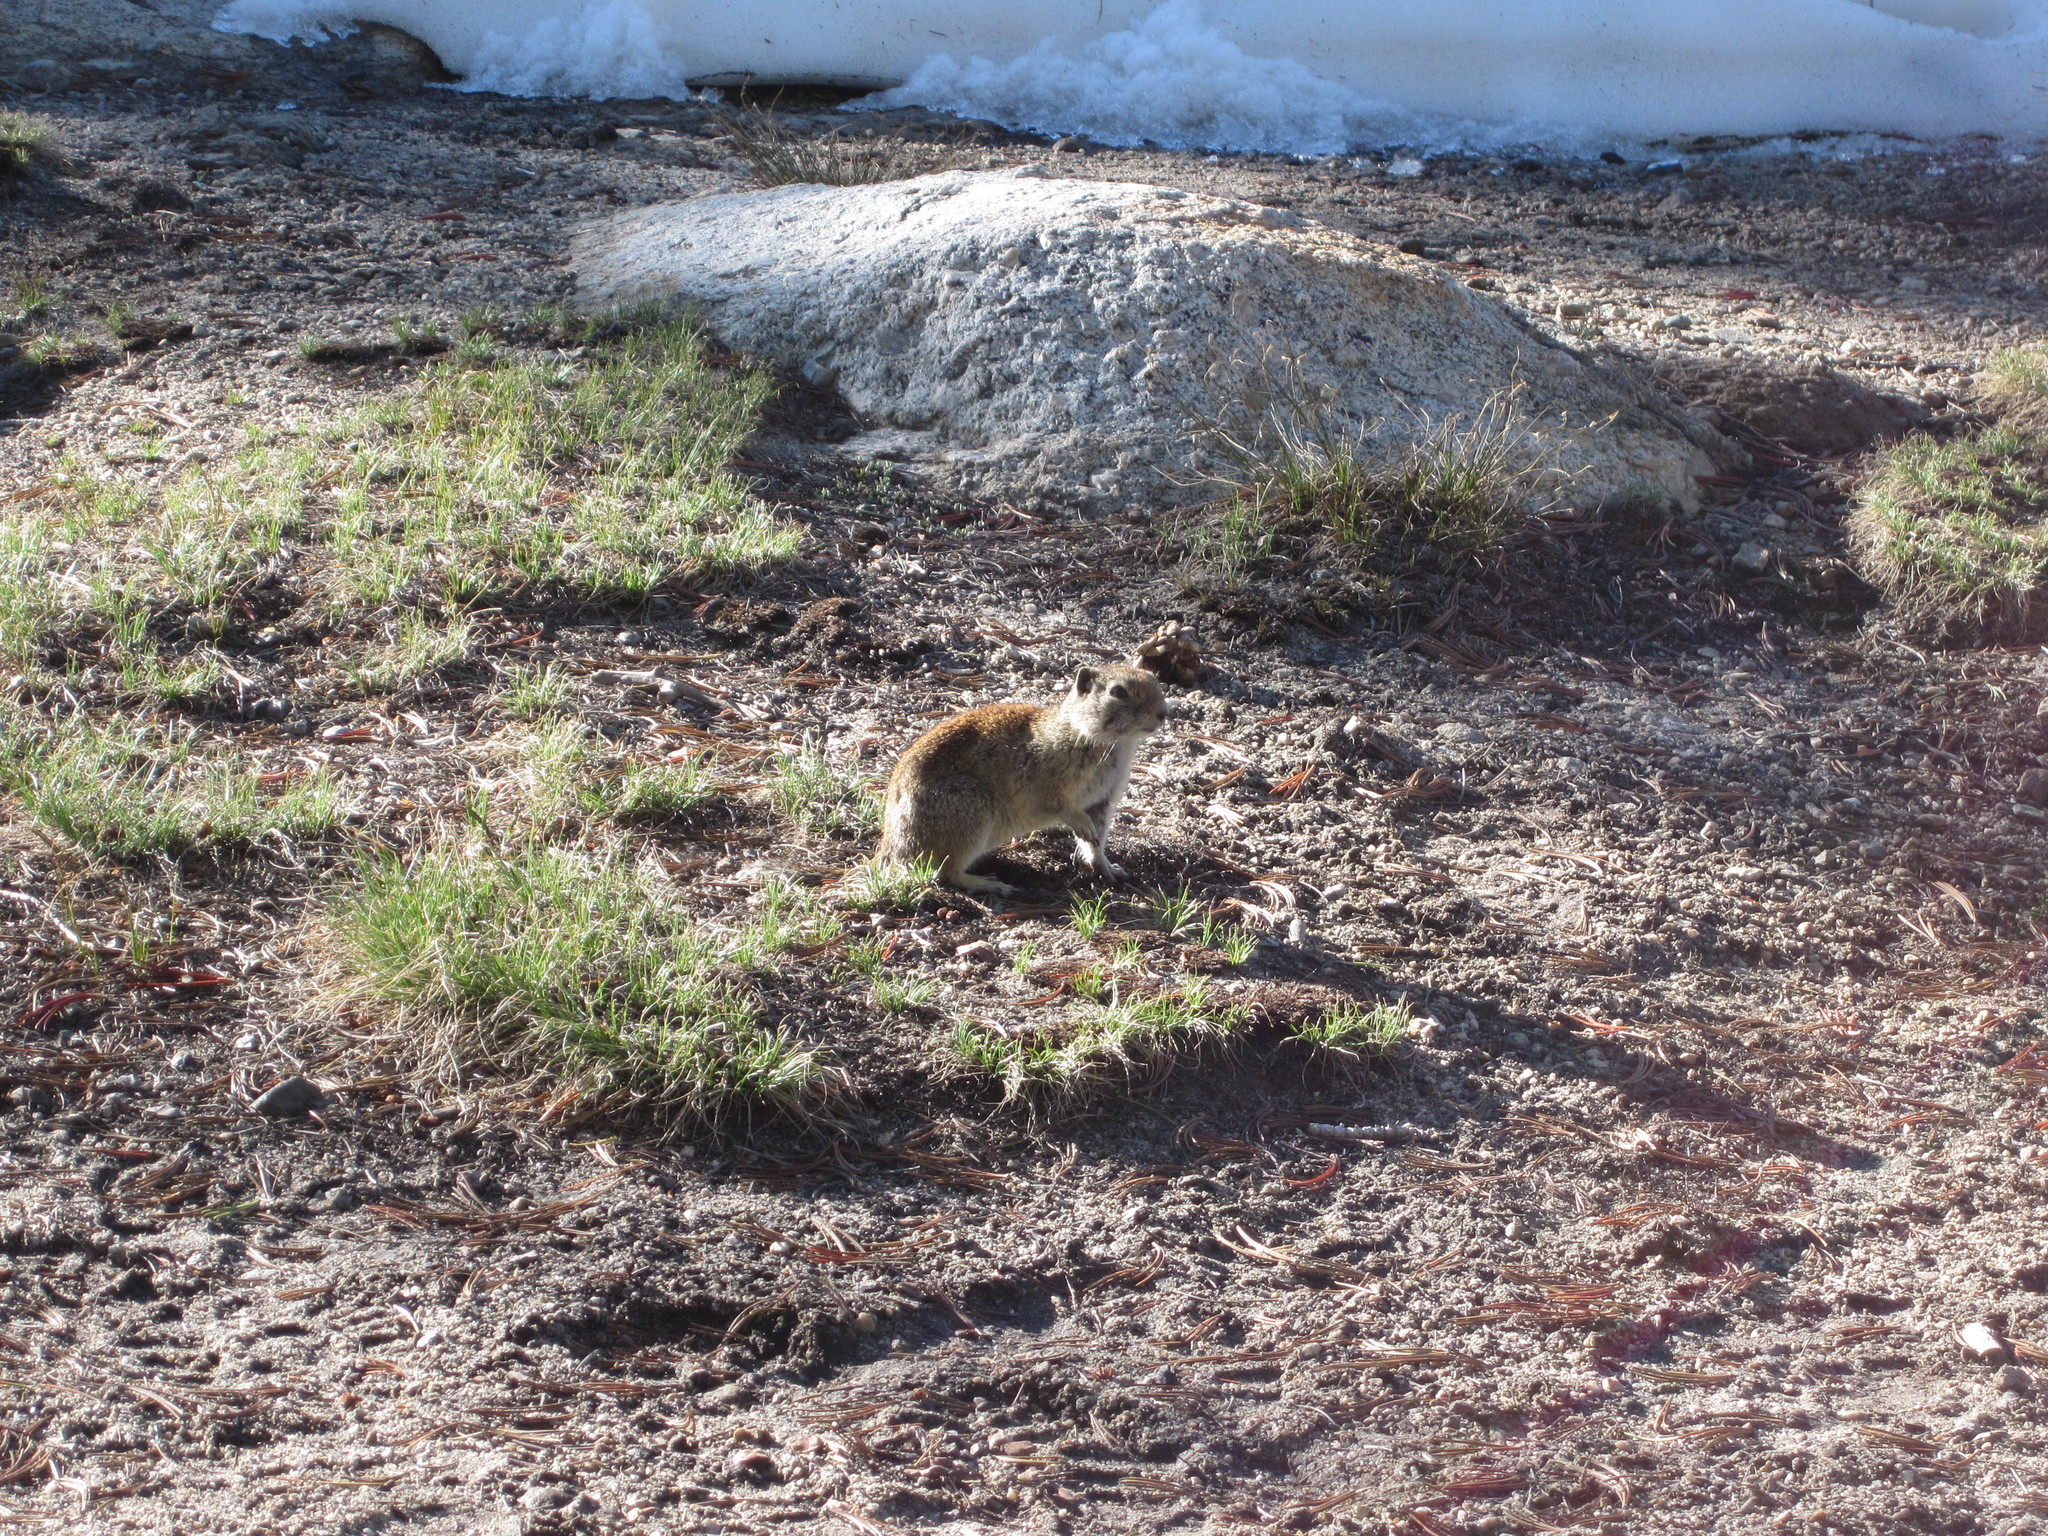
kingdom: Animalia
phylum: Chordata
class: Mammalia
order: Rodentia
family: Sciuridae
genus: Urocitellus
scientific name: Urocitellus beldingi
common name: Belding's ground squirrel
